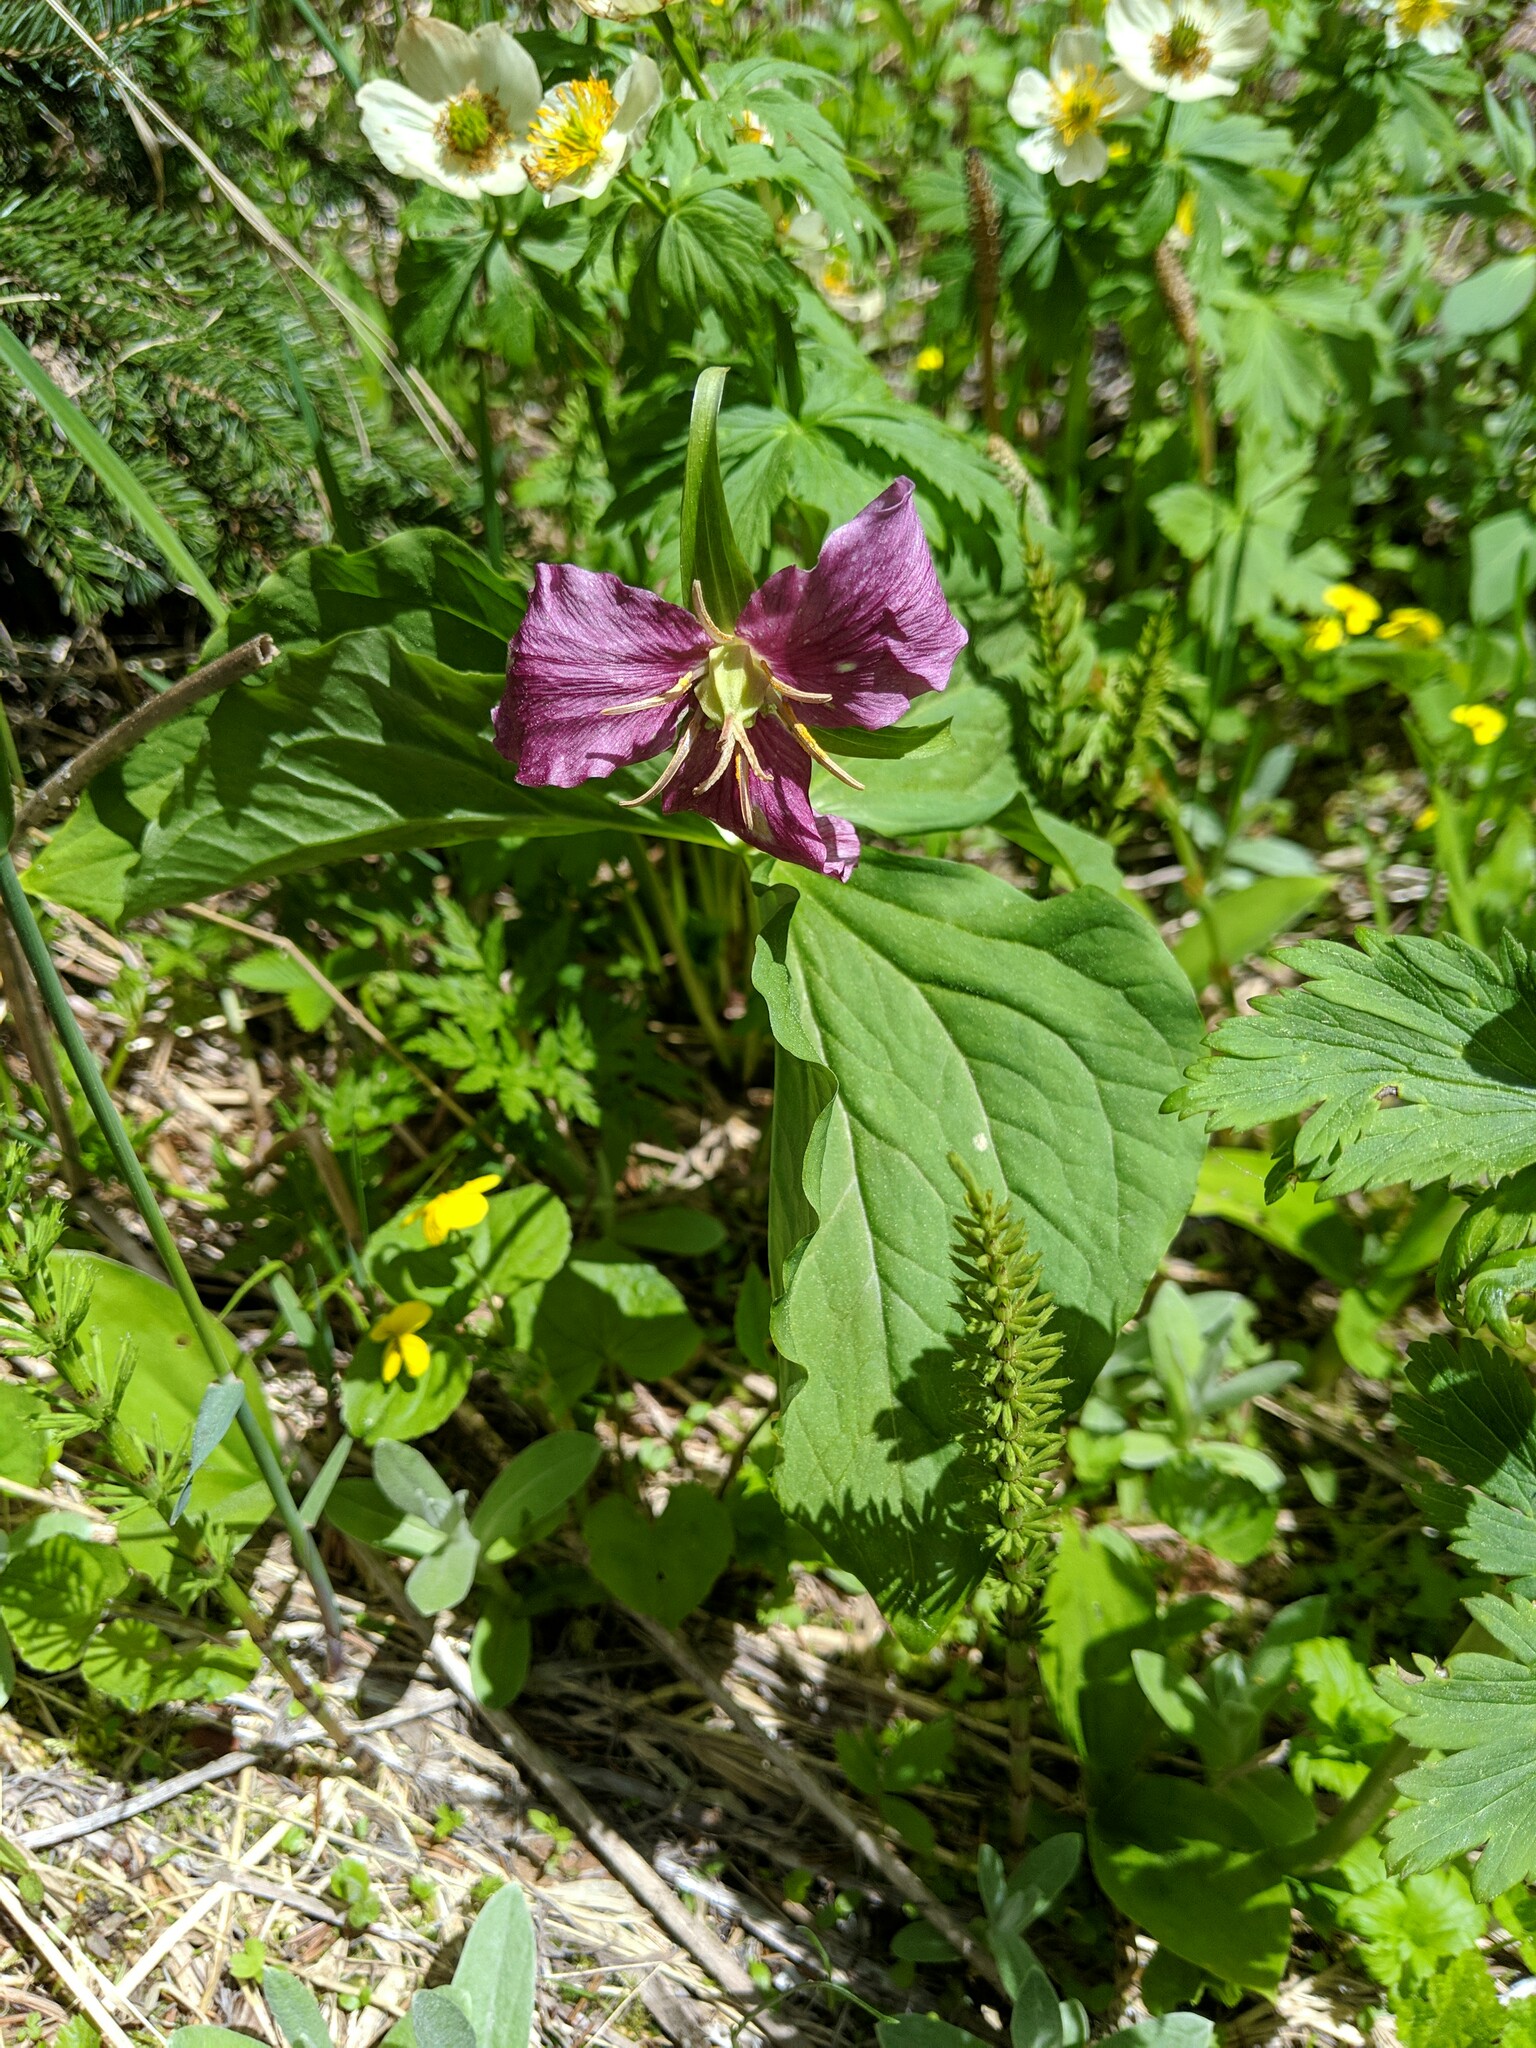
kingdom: Plantae
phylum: Tracheophyta
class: Liliopsida
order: Liliales
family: Melanthiaceae
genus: Trillium
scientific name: Trillium scouleri
